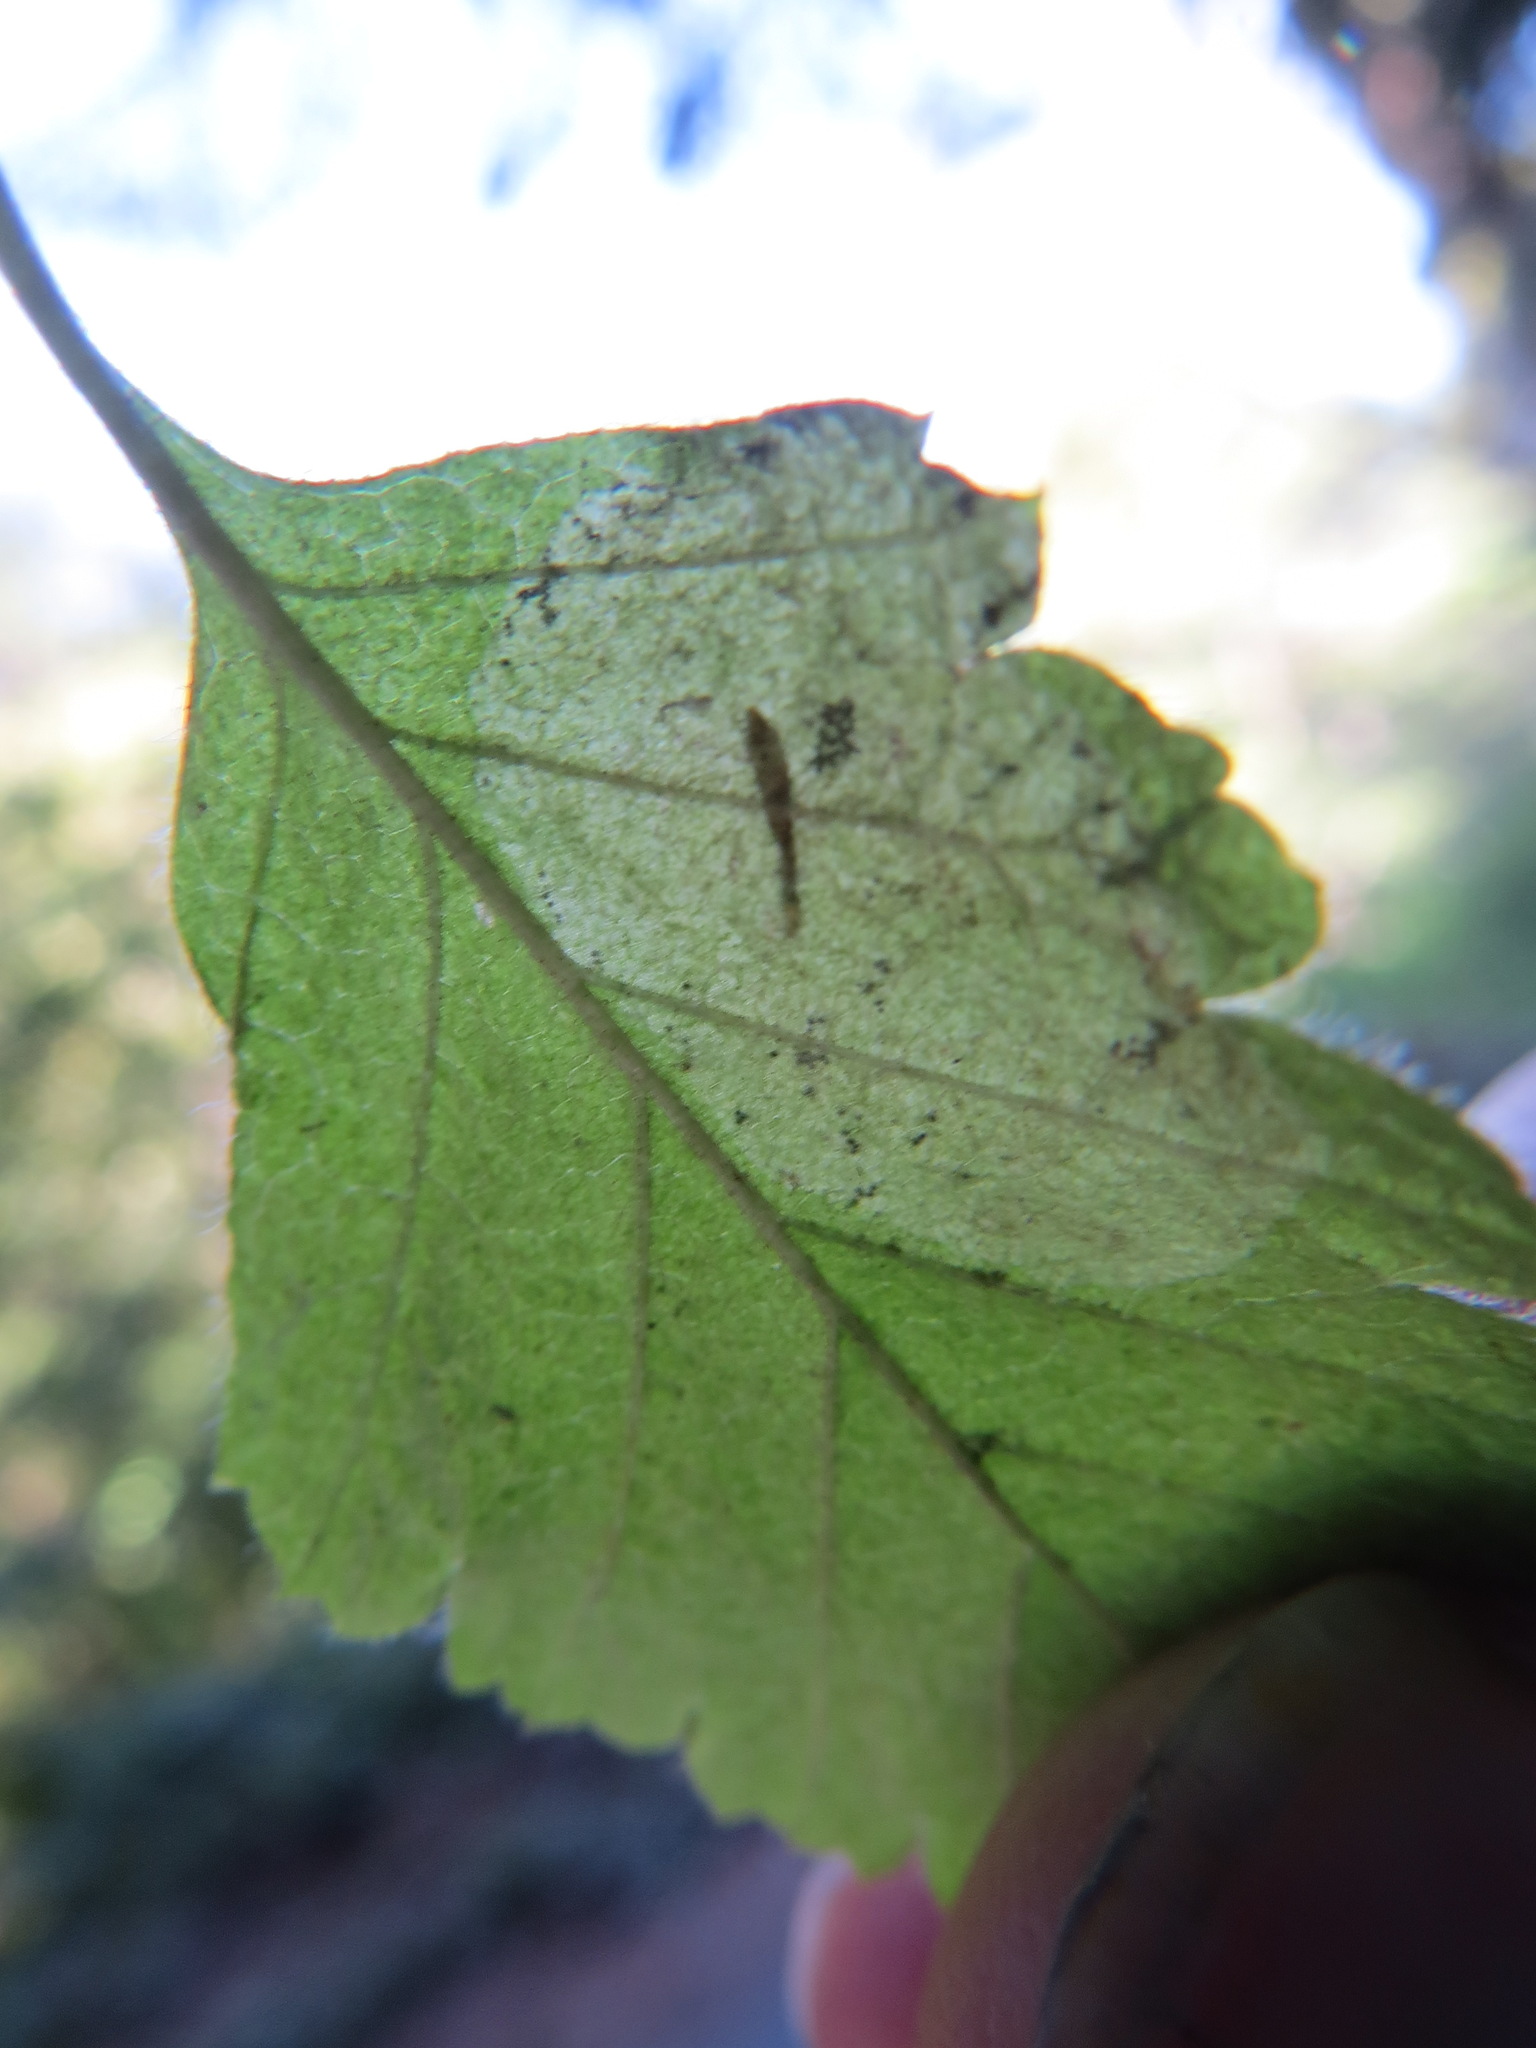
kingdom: Animalia
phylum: Arthropoda
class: Insecta
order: Lepidoptera
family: Gracillariidae
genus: Phyllonorycter
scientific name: Phyllonorycter holodisci
